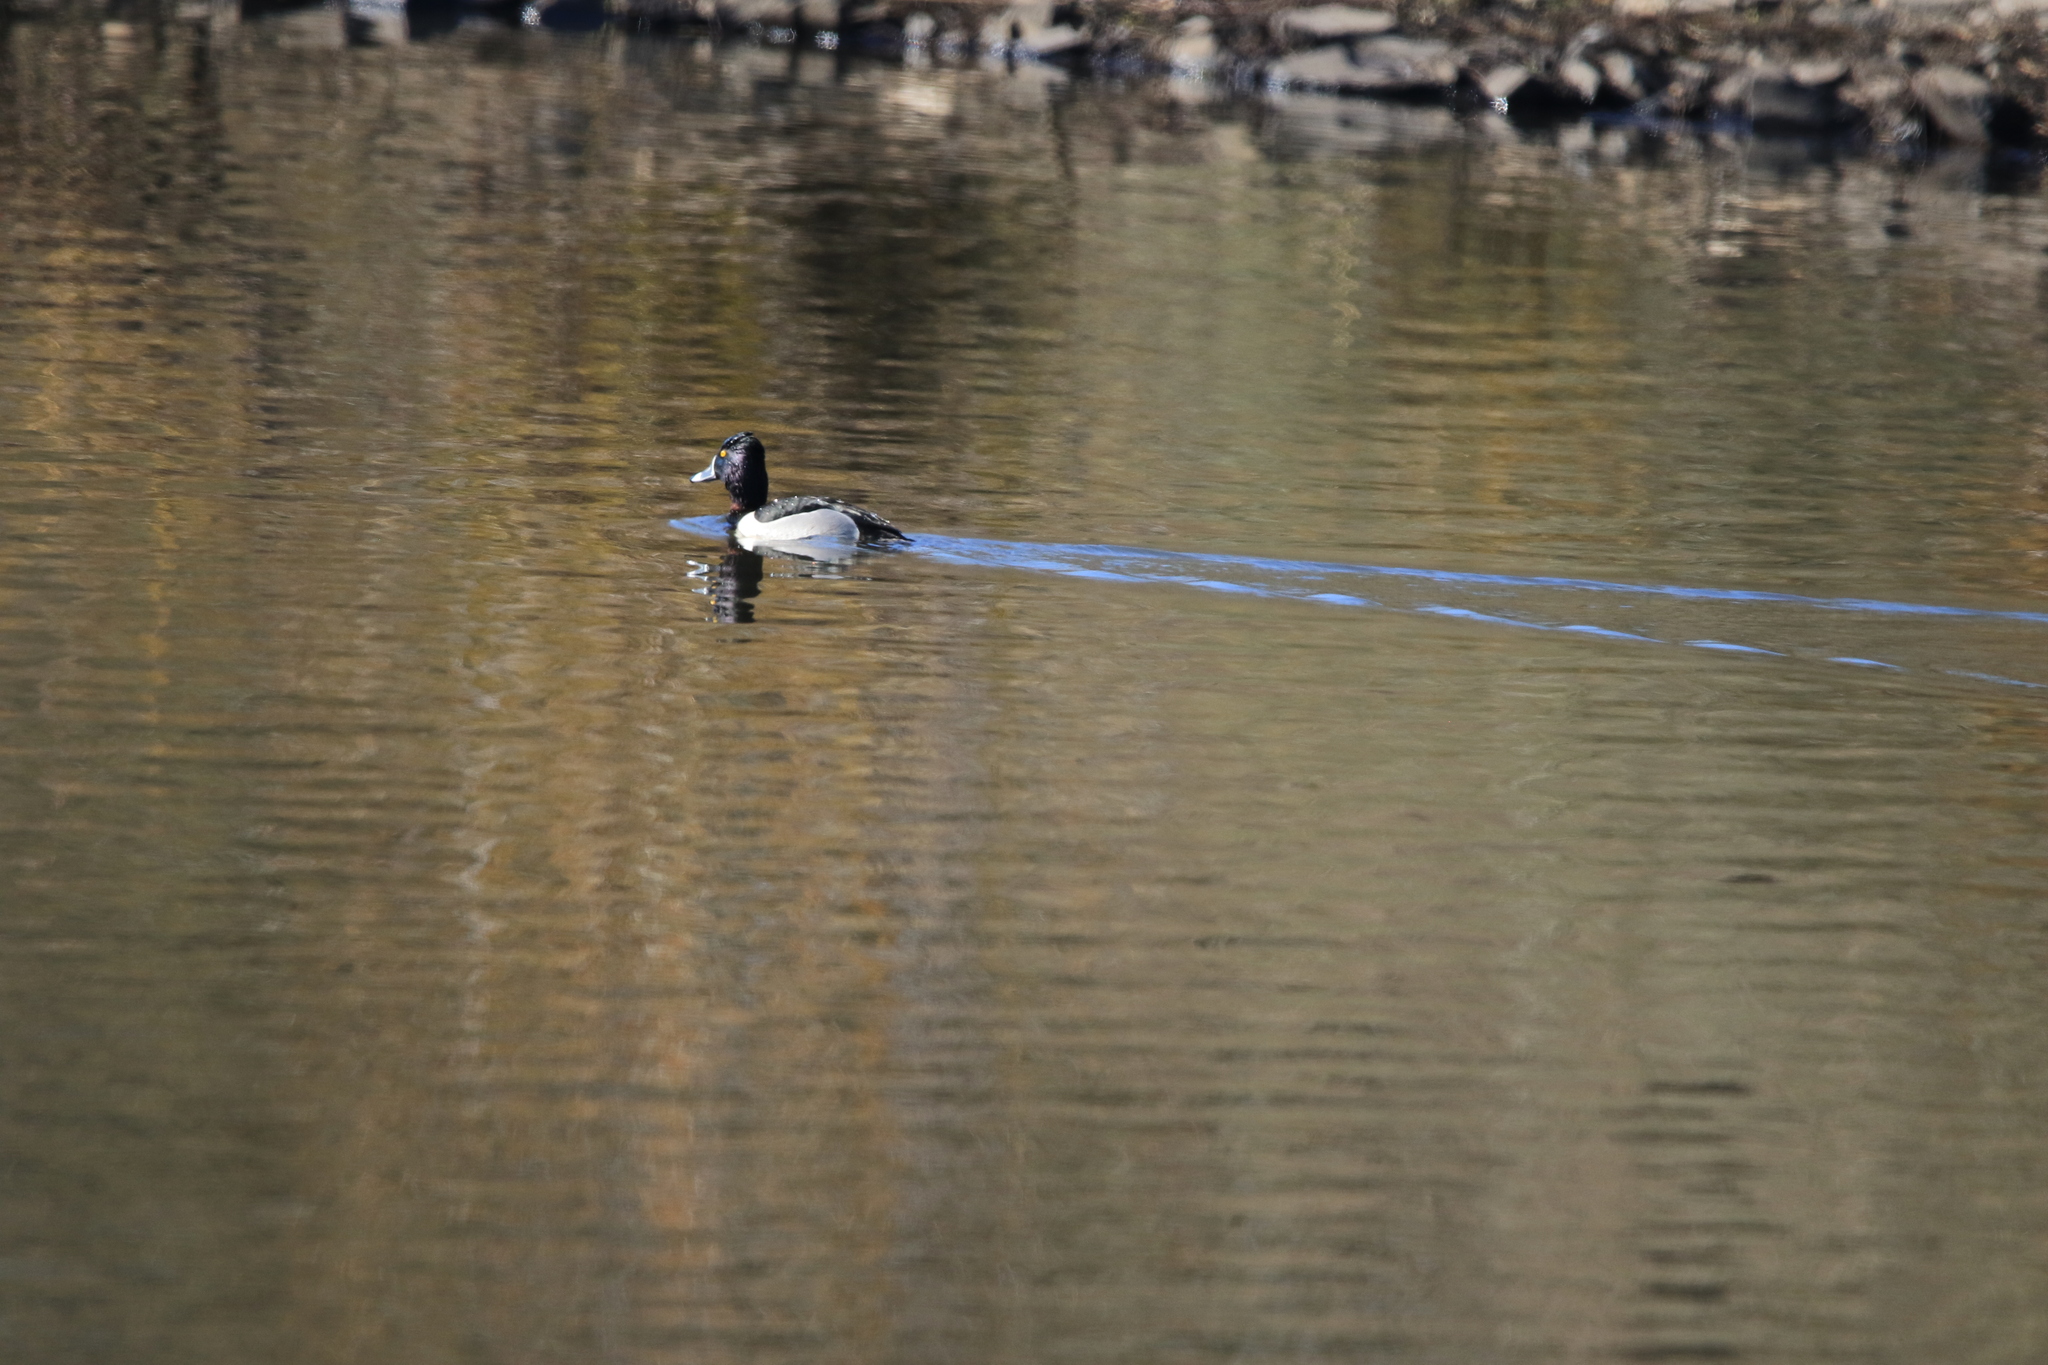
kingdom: Animalia
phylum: Chordata
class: Aves
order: Anseriformes
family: Anatidae
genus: Aythya
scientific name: Aythya collaris
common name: Ring-necked duck
